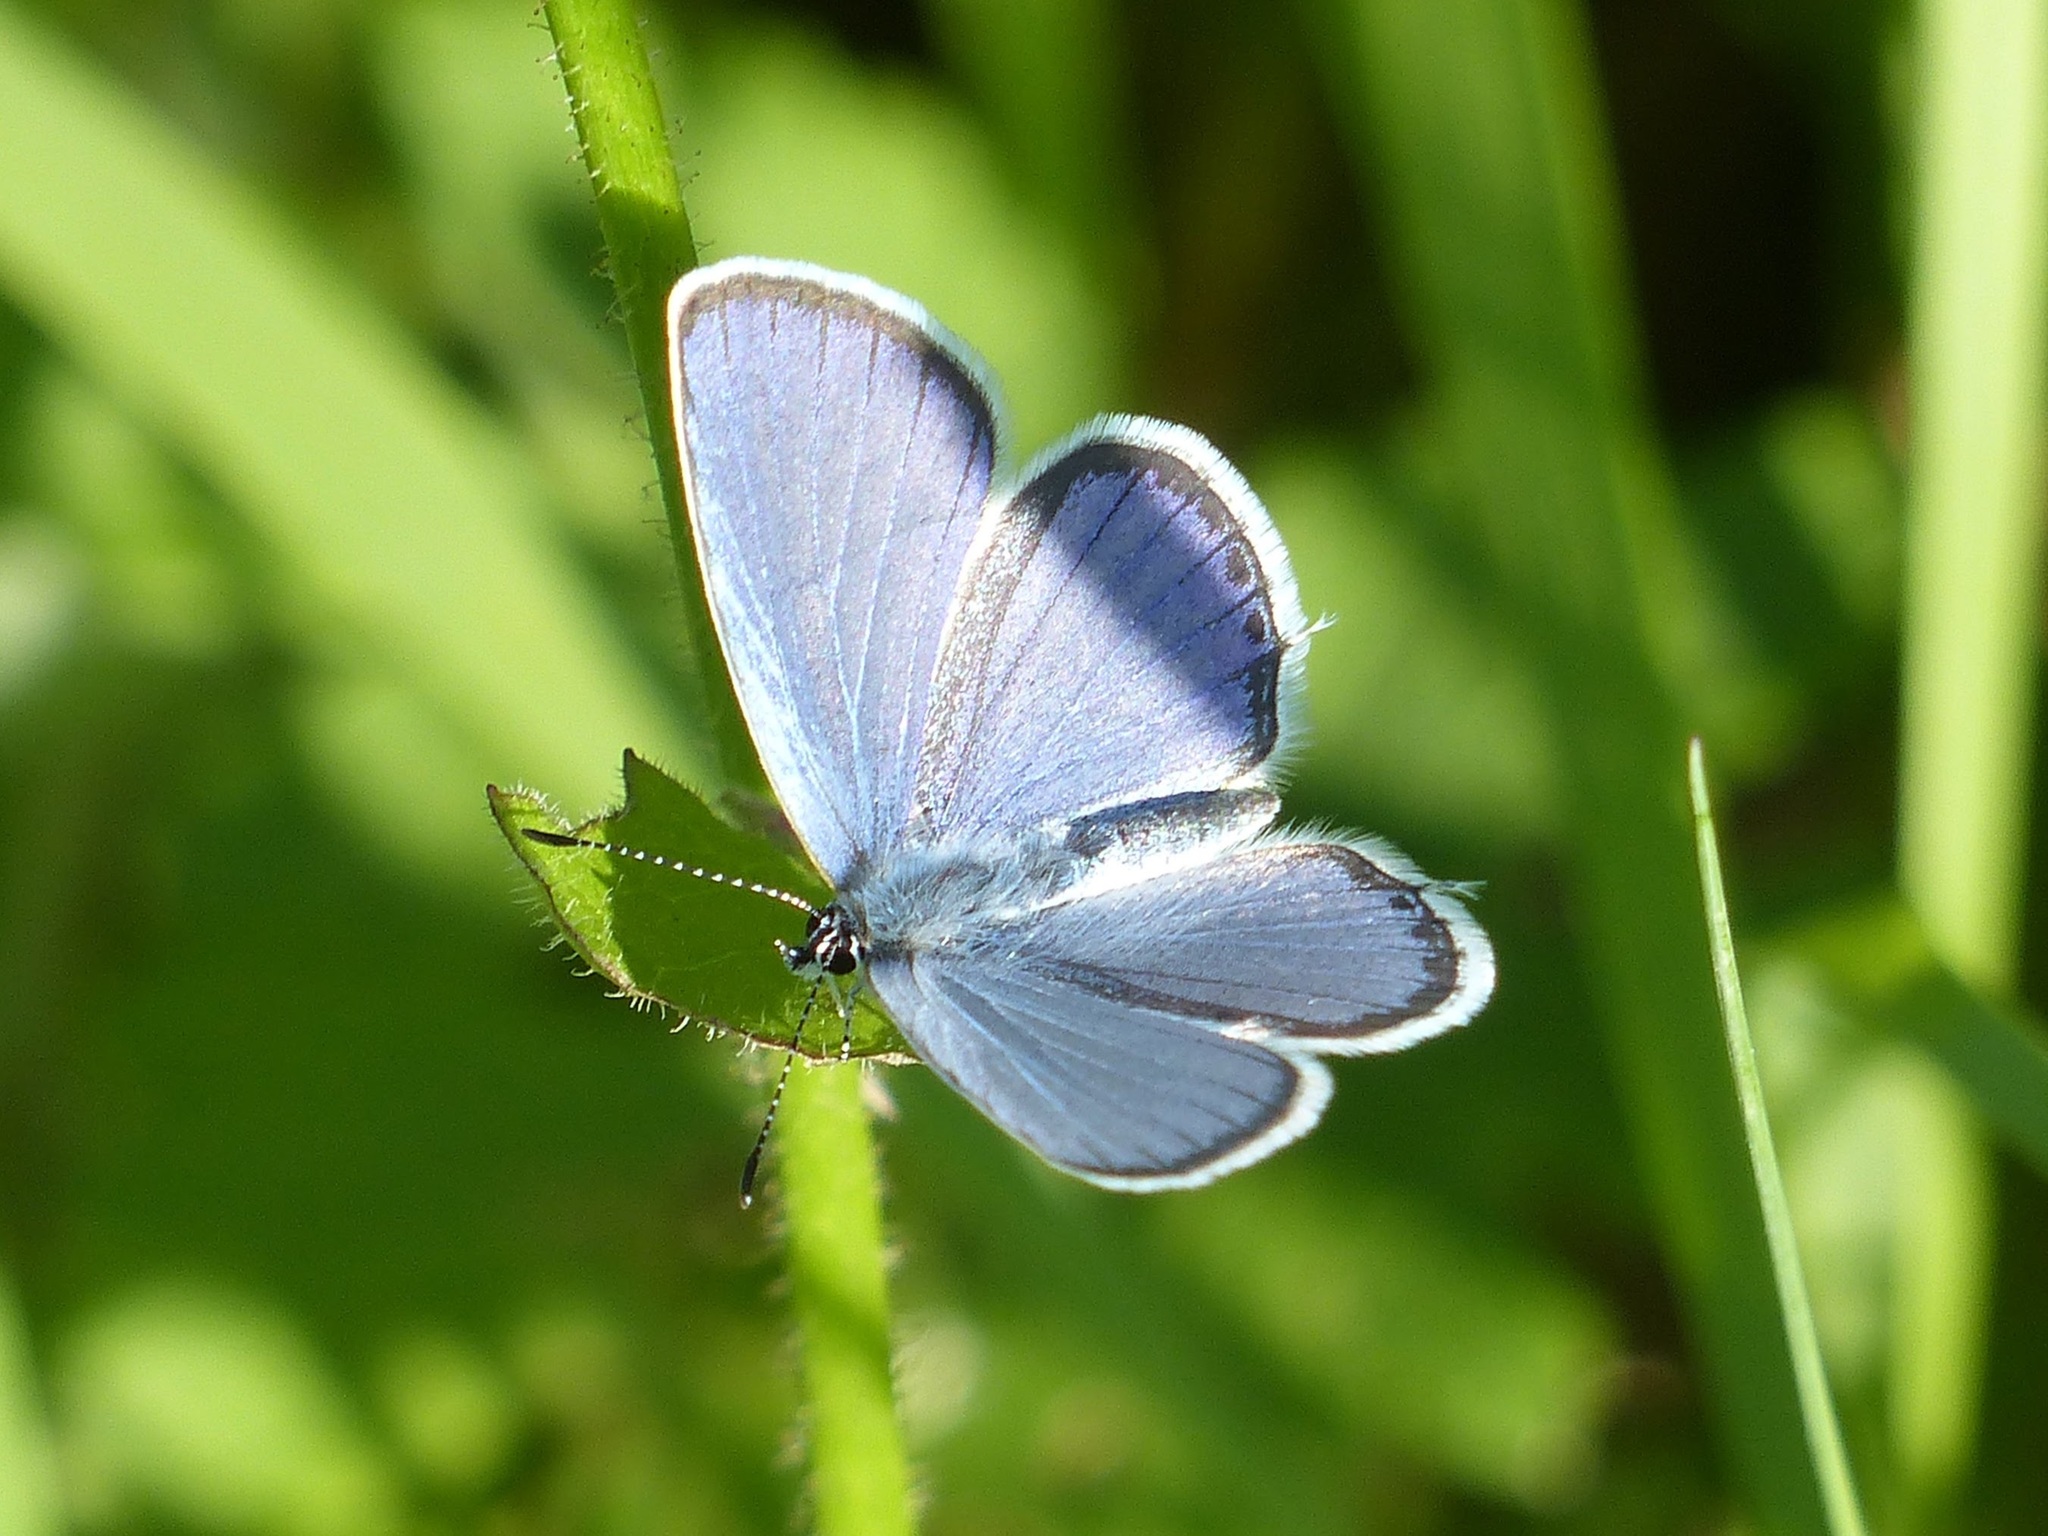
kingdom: Animalia
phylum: Arthropoda
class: Insecta
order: Lepidoptera
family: Lycaenidae
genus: Elkalyce
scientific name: Elkalyce argiades
